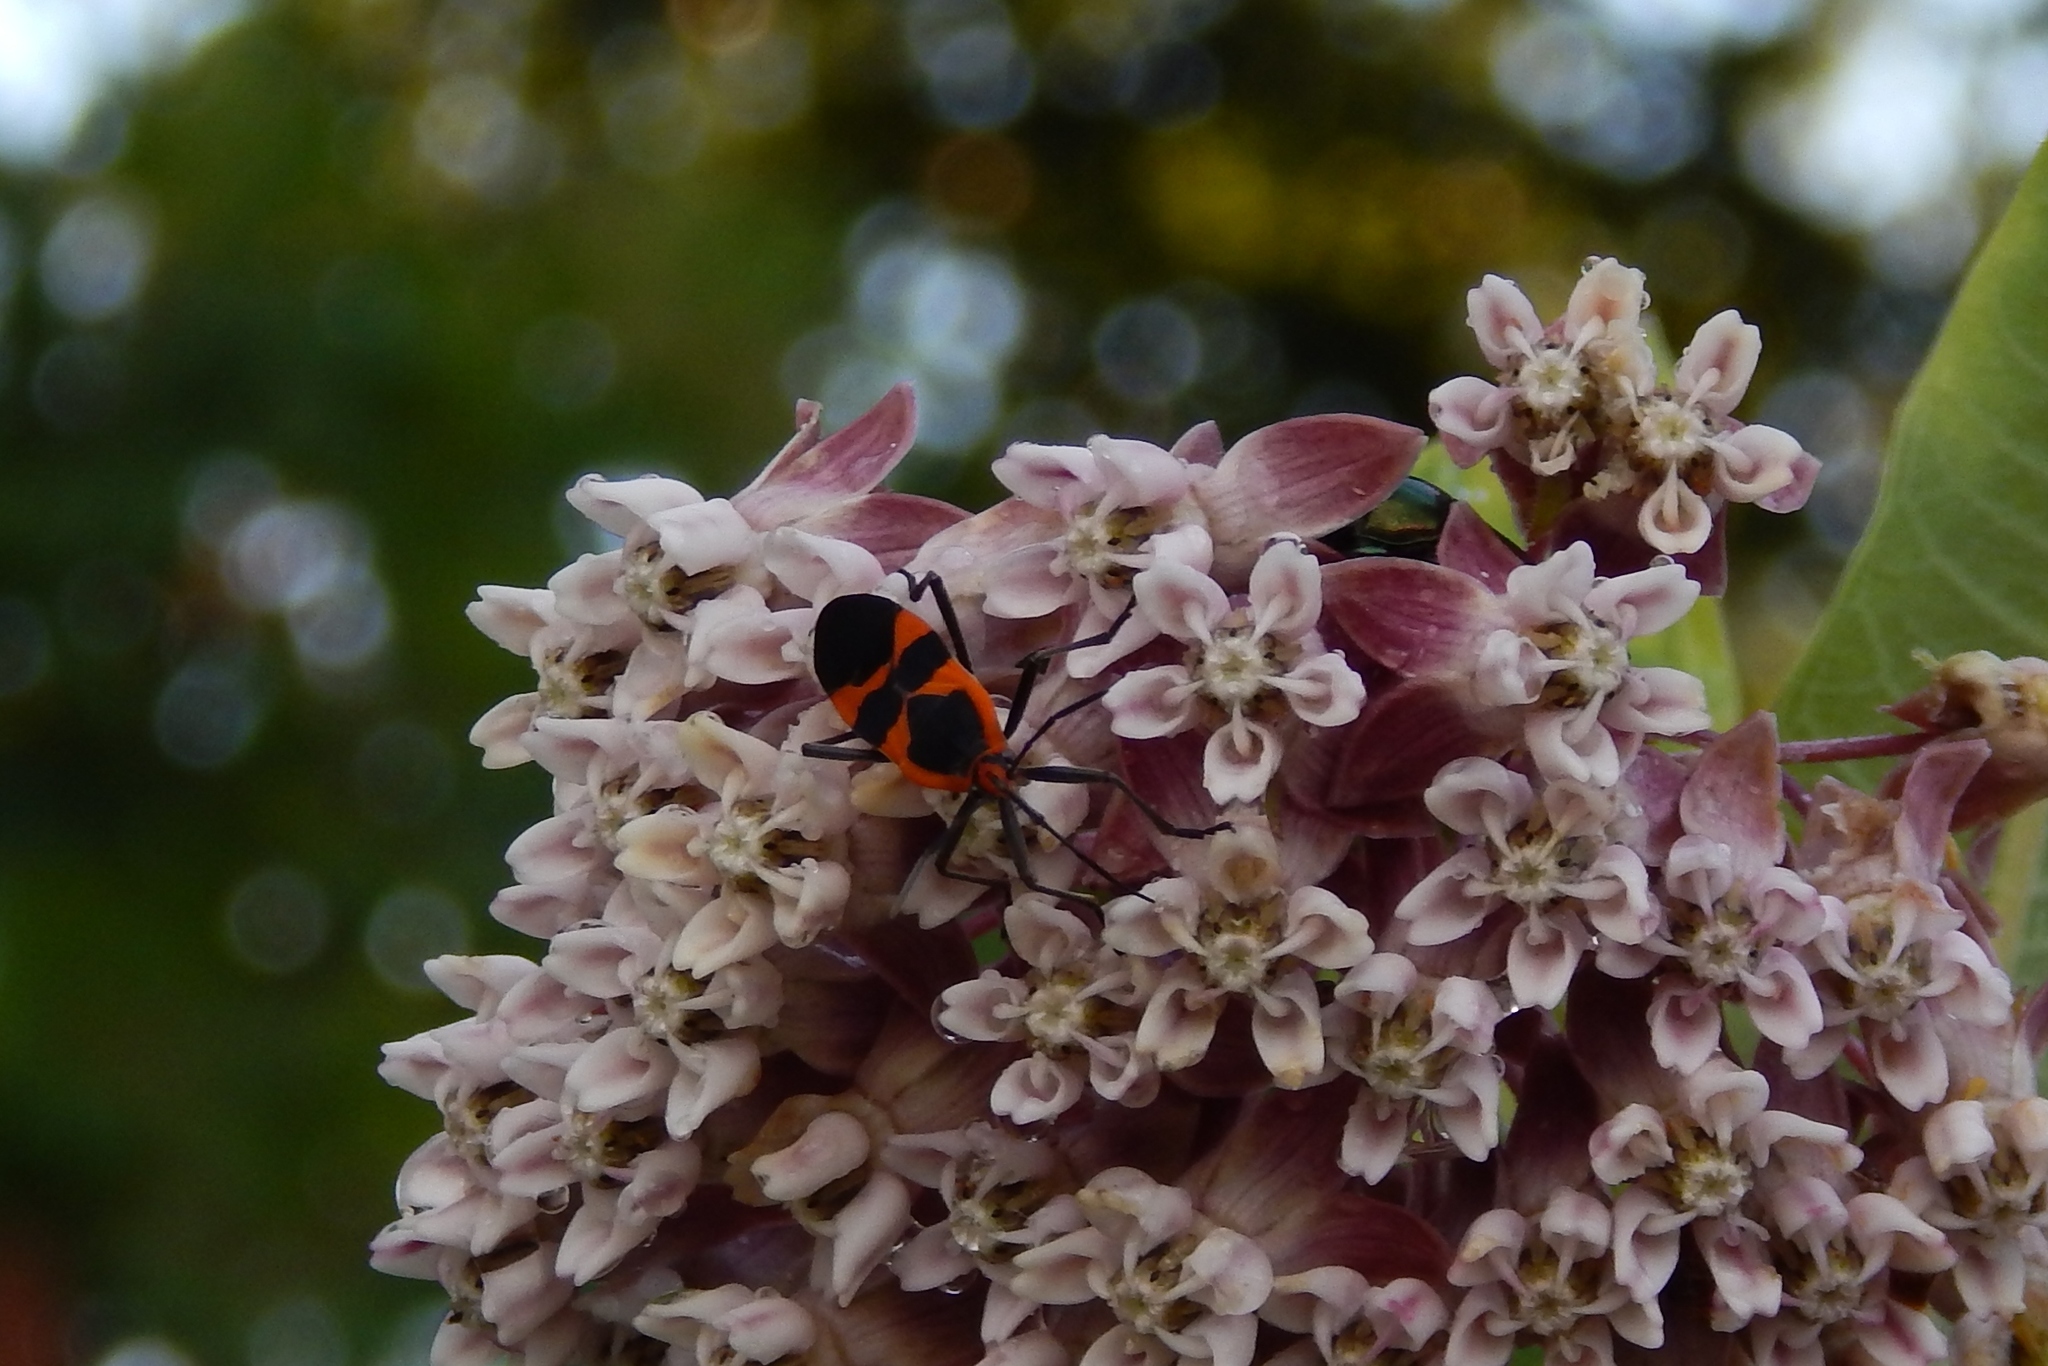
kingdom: Animalia
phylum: Arthropoda
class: Insecta
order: Hemiptera
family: Lygaeidae
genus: Oncopeltus
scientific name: Oncopeltus fasciatus
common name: Large milkweed bug
